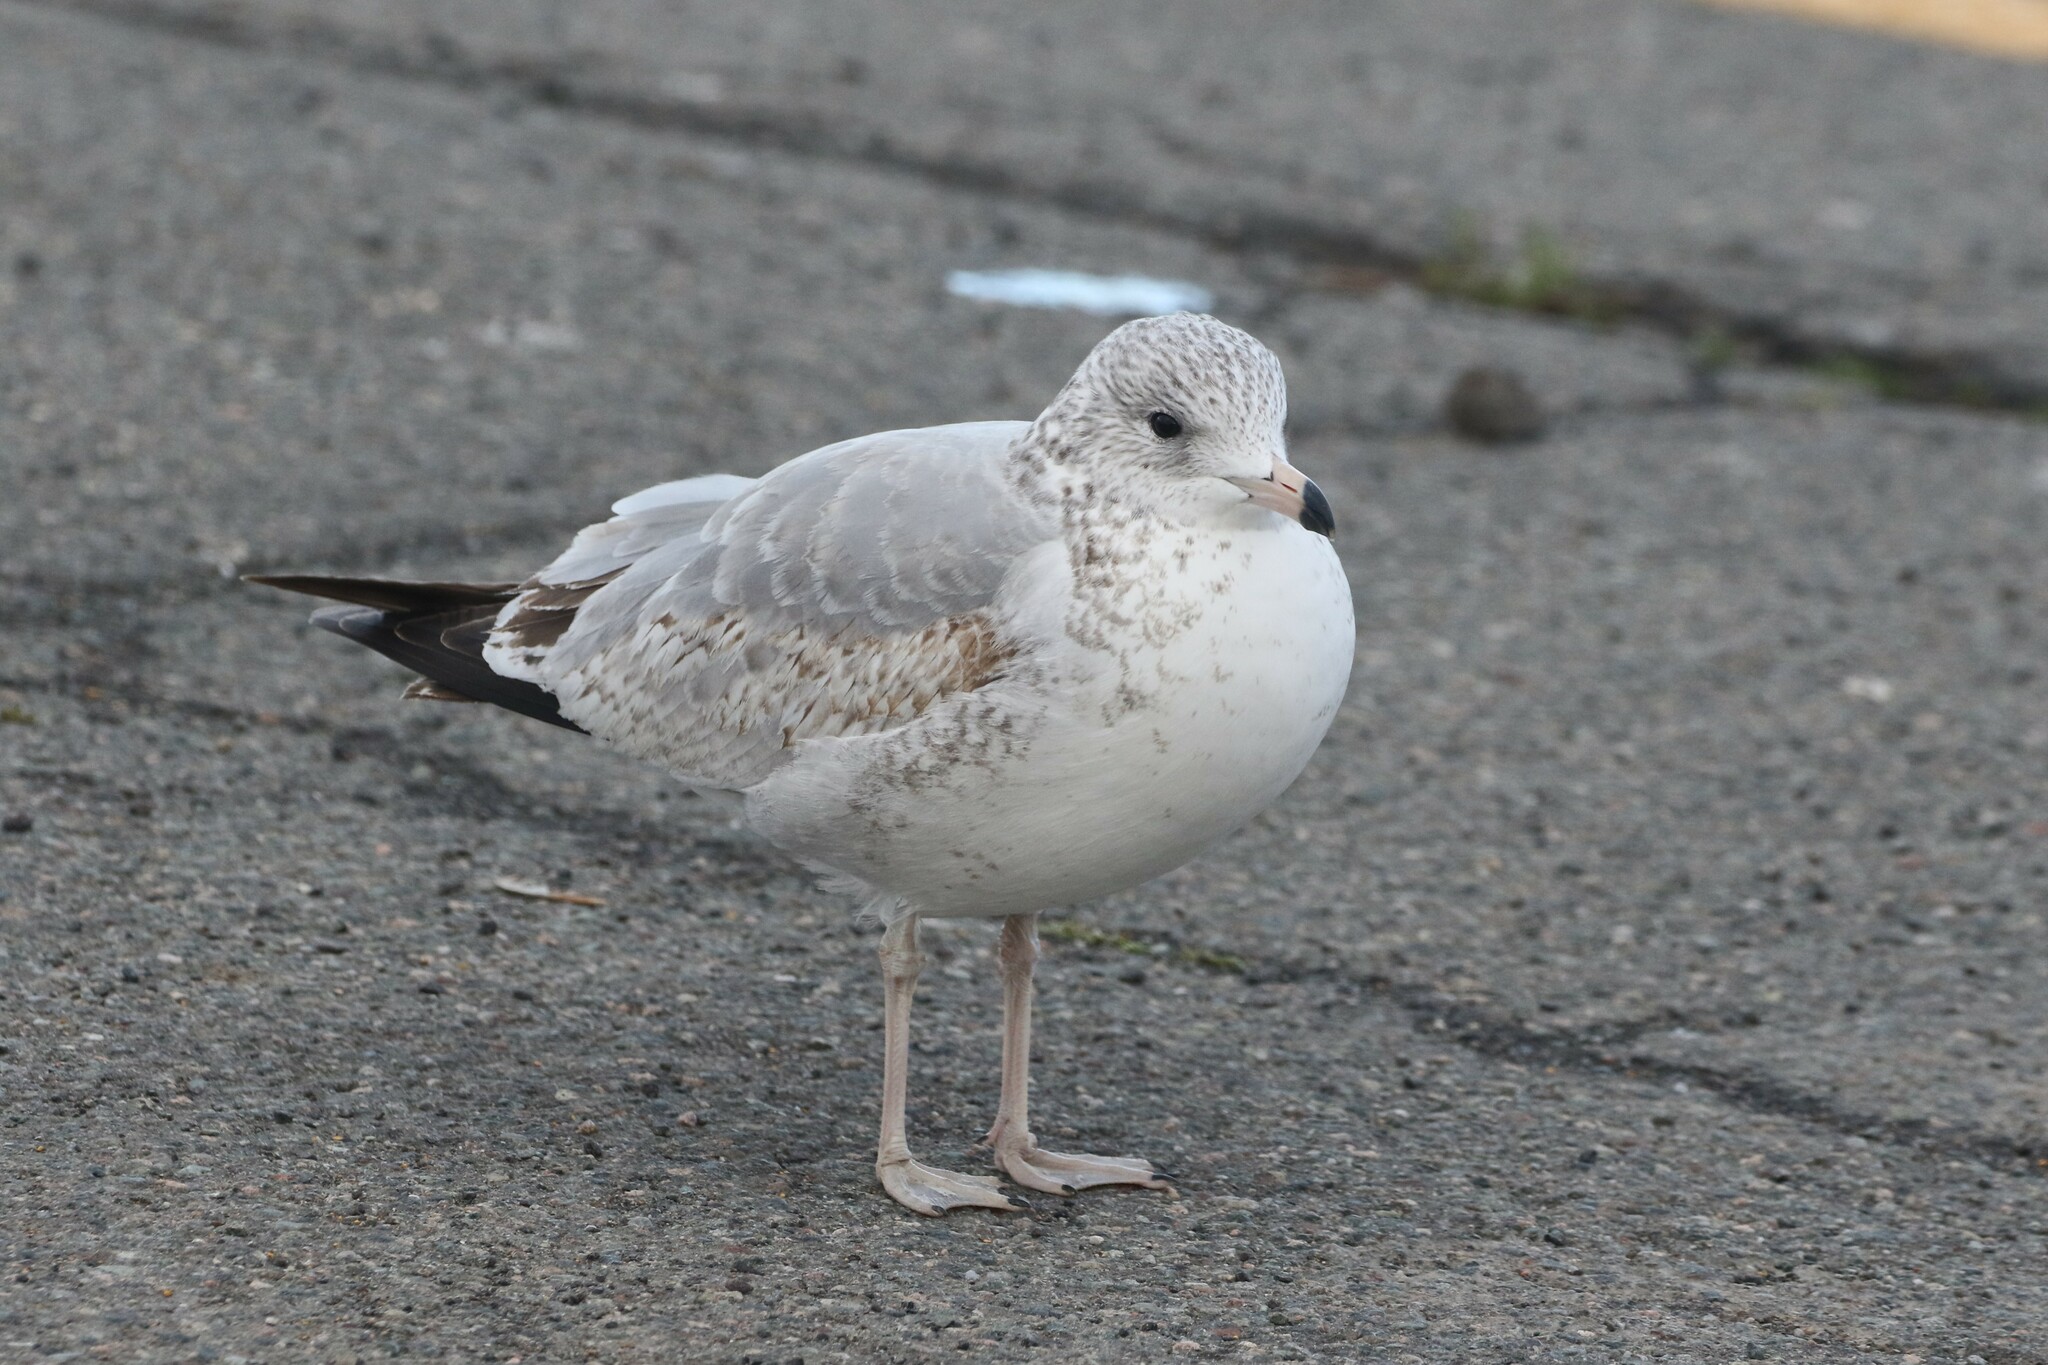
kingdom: Animalia
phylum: Chordata
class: Aves
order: Charadriiformes
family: Laridae
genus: Larus
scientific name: Larus delawarensis
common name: Ring-billed gull
